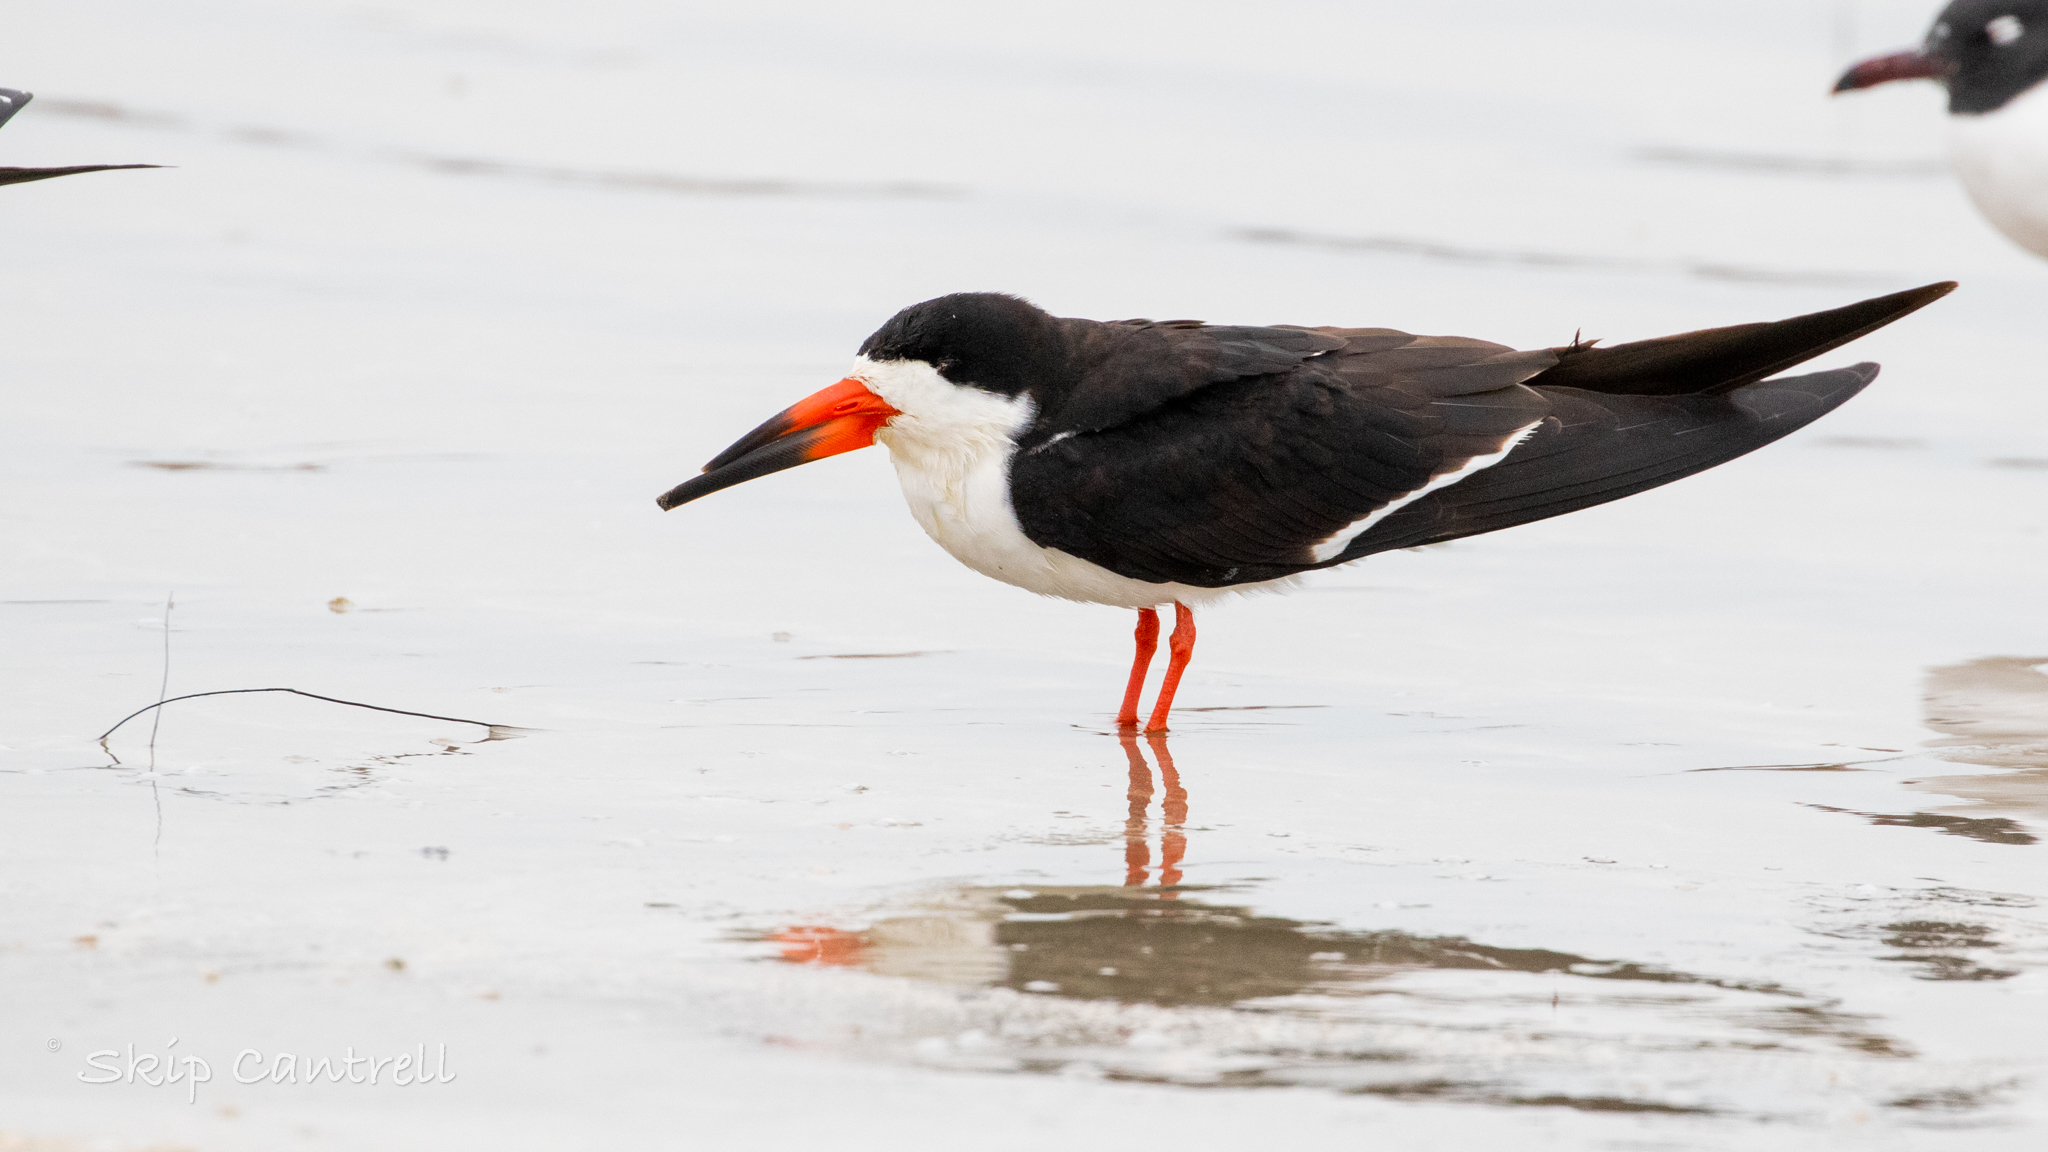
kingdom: Animalia
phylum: Chordata
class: Aves
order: Charadriiformes
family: Laridae
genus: Rynchops
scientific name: Rynchops niger
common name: Black skimmer
